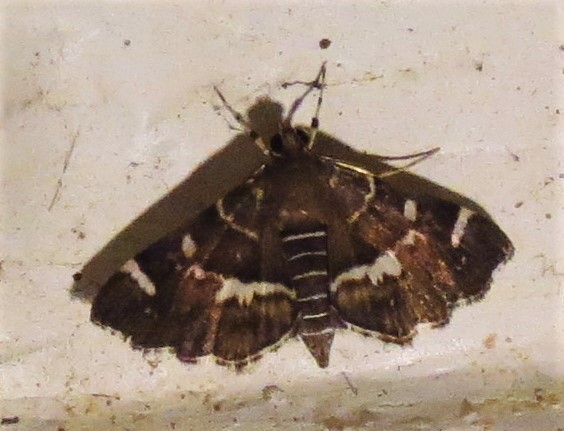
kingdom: Animalia
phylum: Arthropoda
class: Insecta
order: Lepidoptera
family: Crambidae
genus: Hymenia
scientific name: Hymenia perspectalis
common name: Spotted beet webworm
